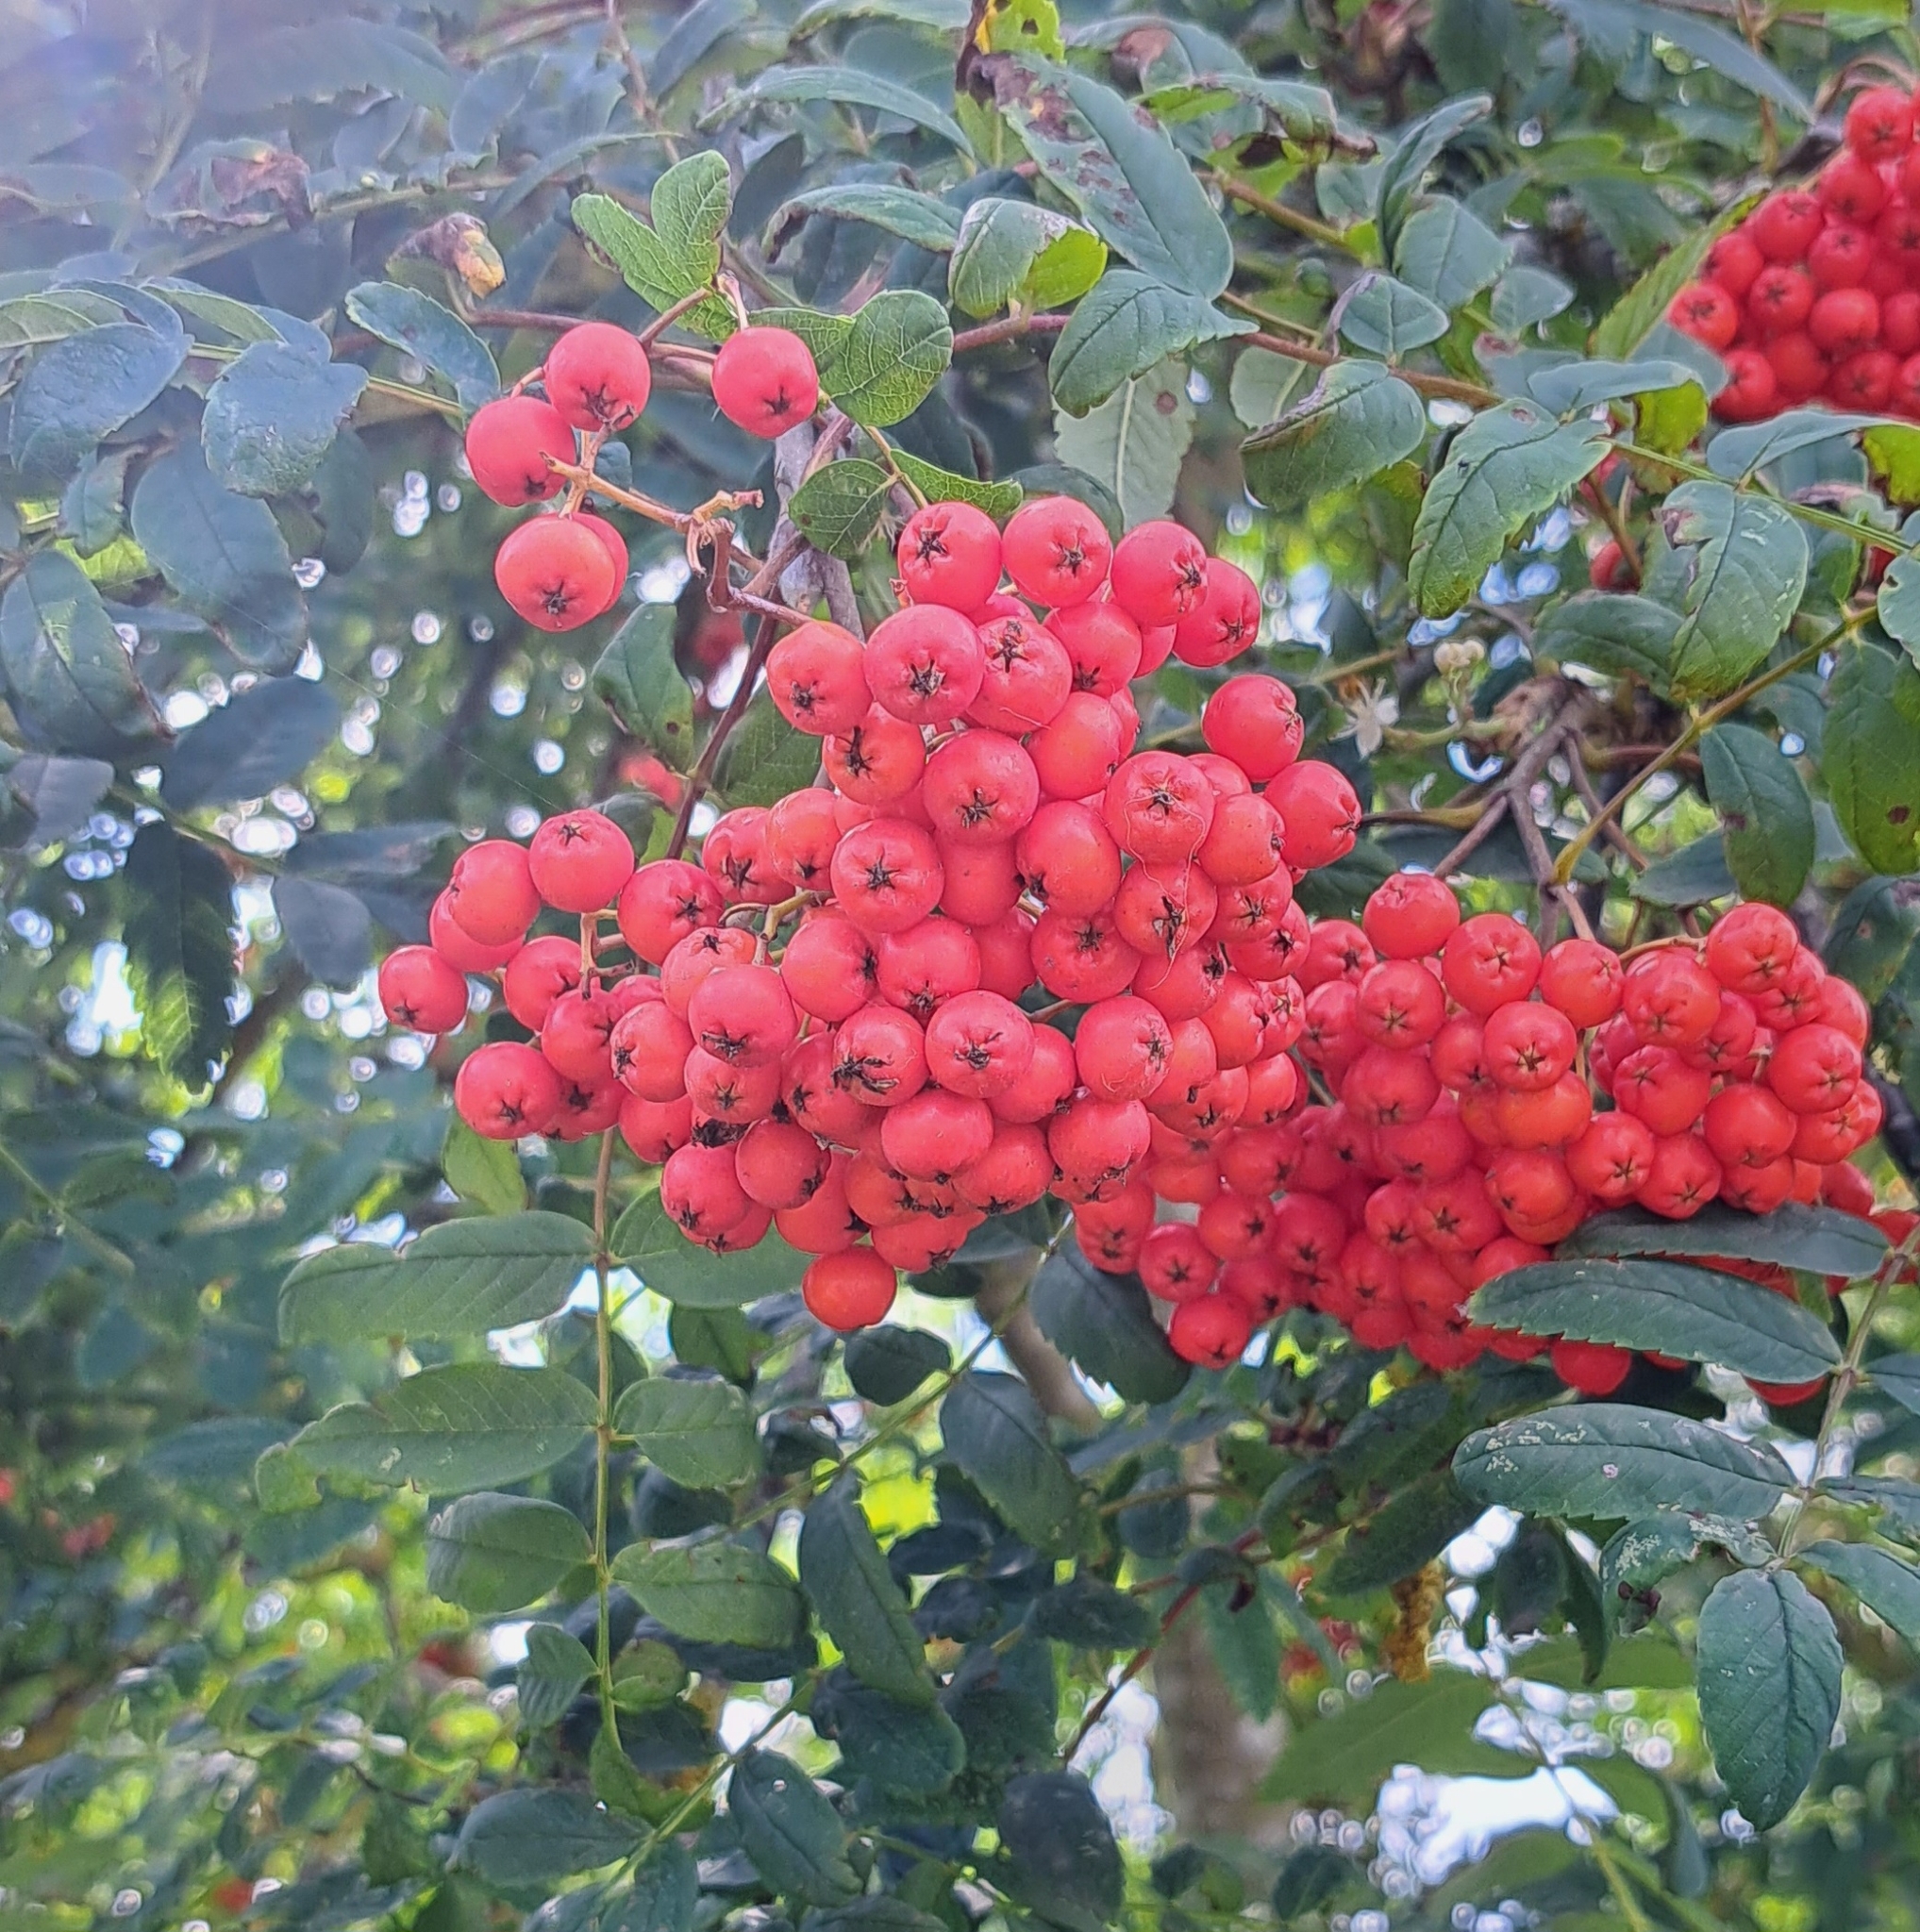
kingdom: Plantae
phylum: Tracheophyta
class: Magnoliopsida
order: Rosales
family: Rosaceae
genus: Sorbus
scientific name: Sorbus aucuparia
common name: Rowan
